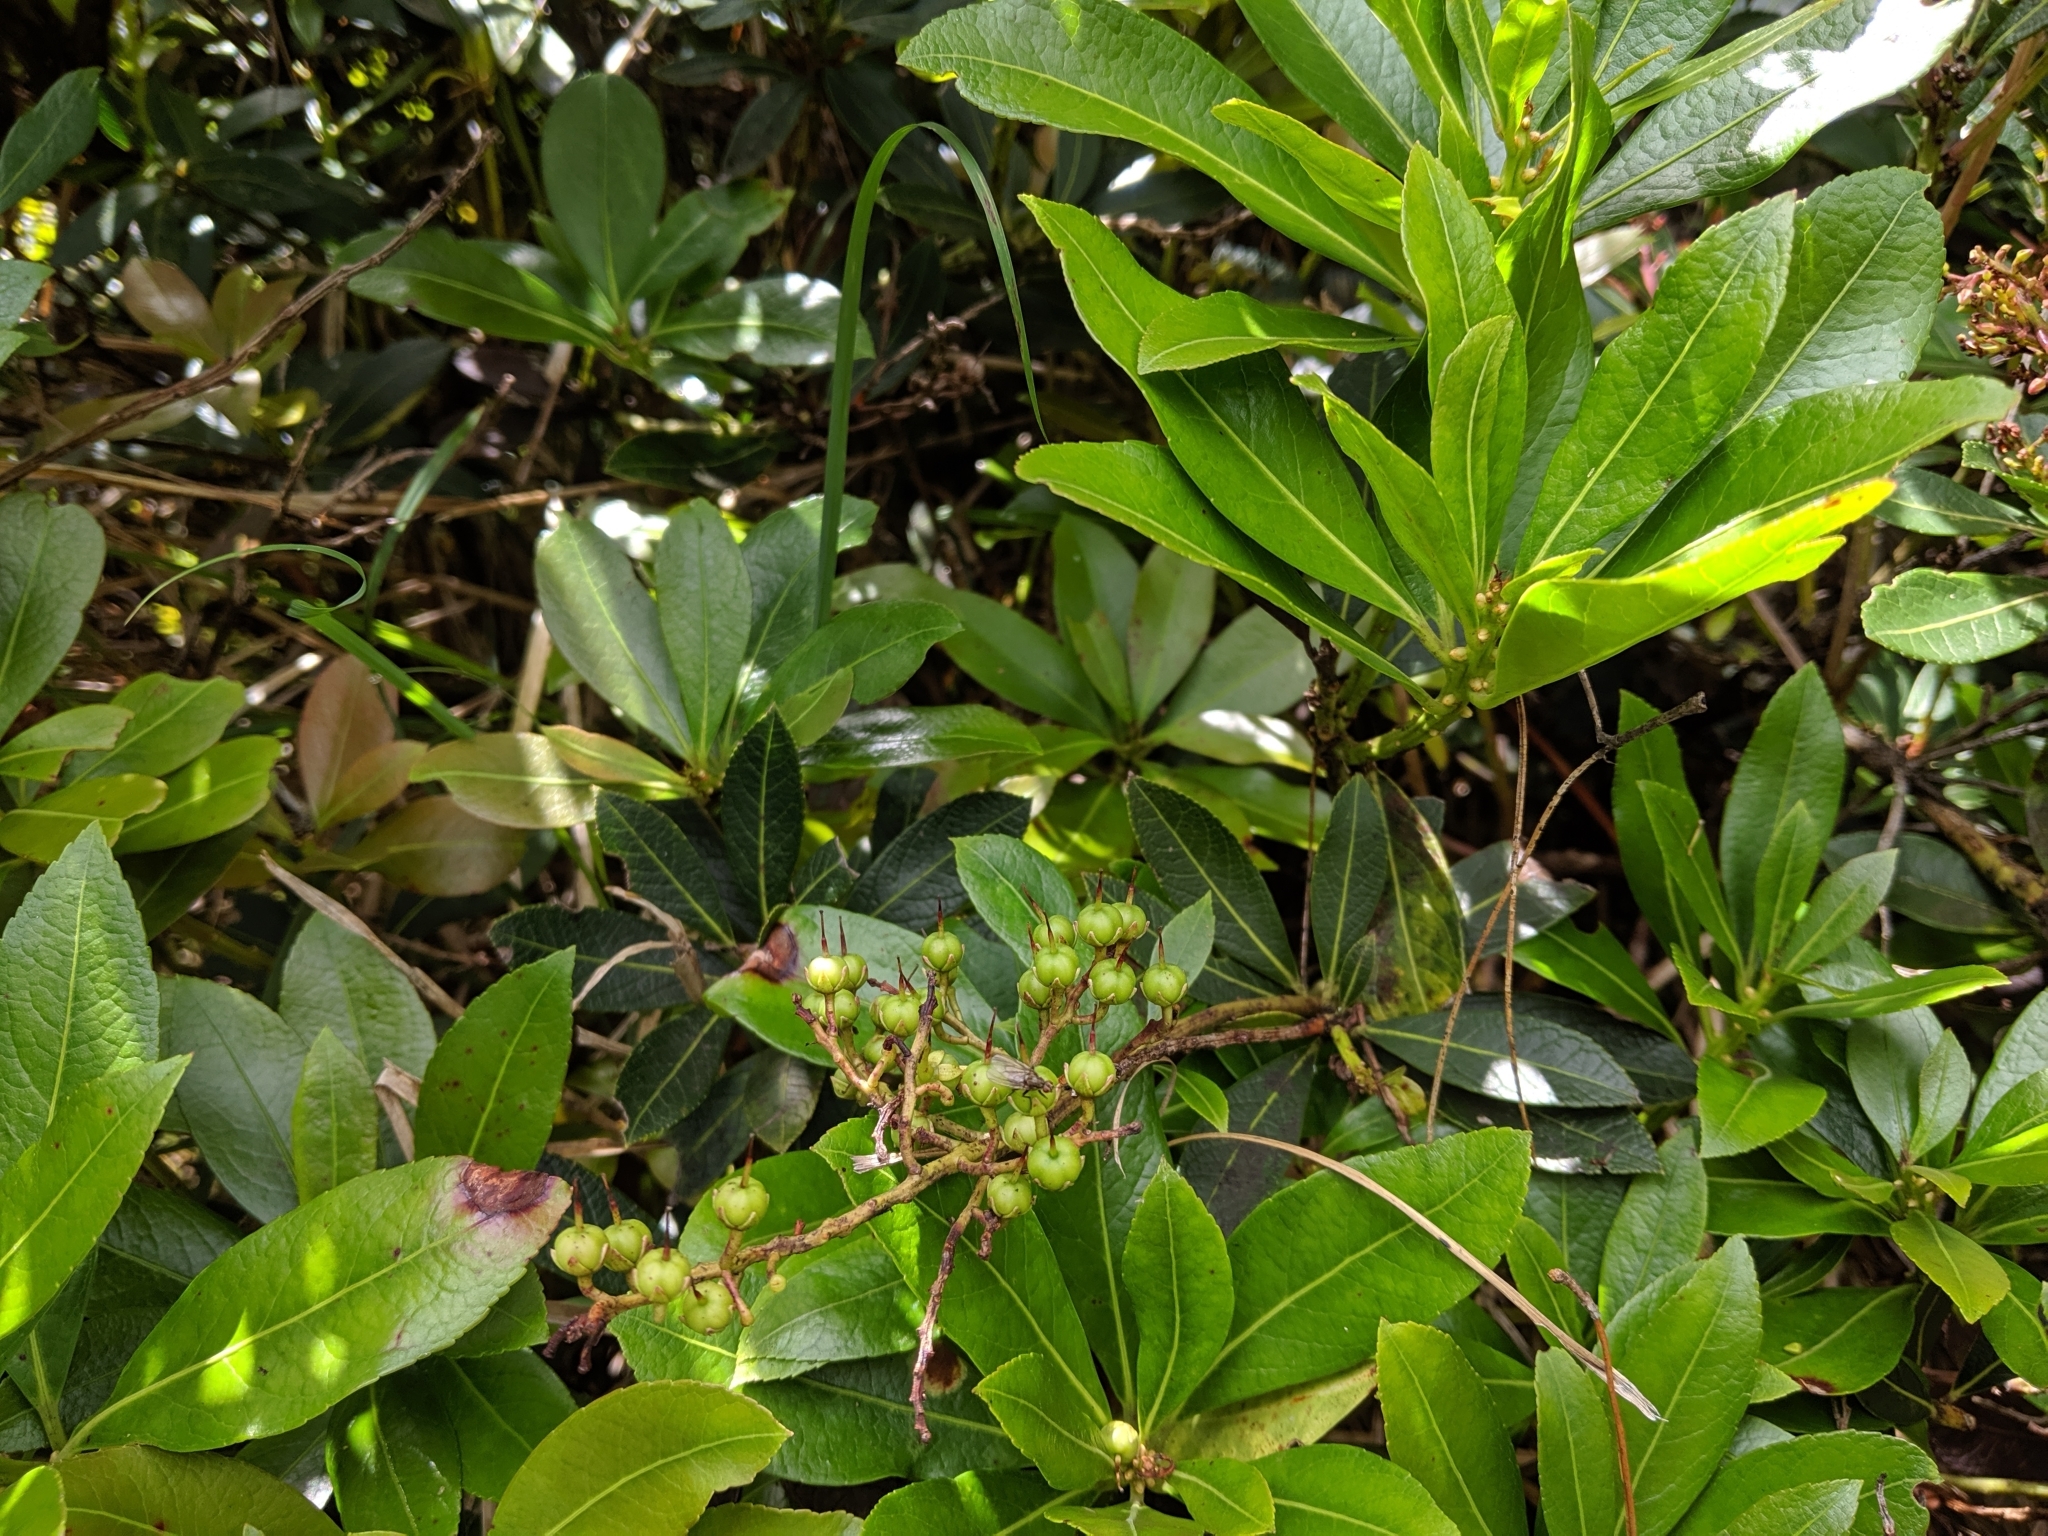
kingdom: Plantae
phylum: Tracheophyta
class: Magnoliopsida
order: Ericales
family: Ericaceae
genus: Pieris
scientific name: Pieris japonica
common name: Japanese pieris
